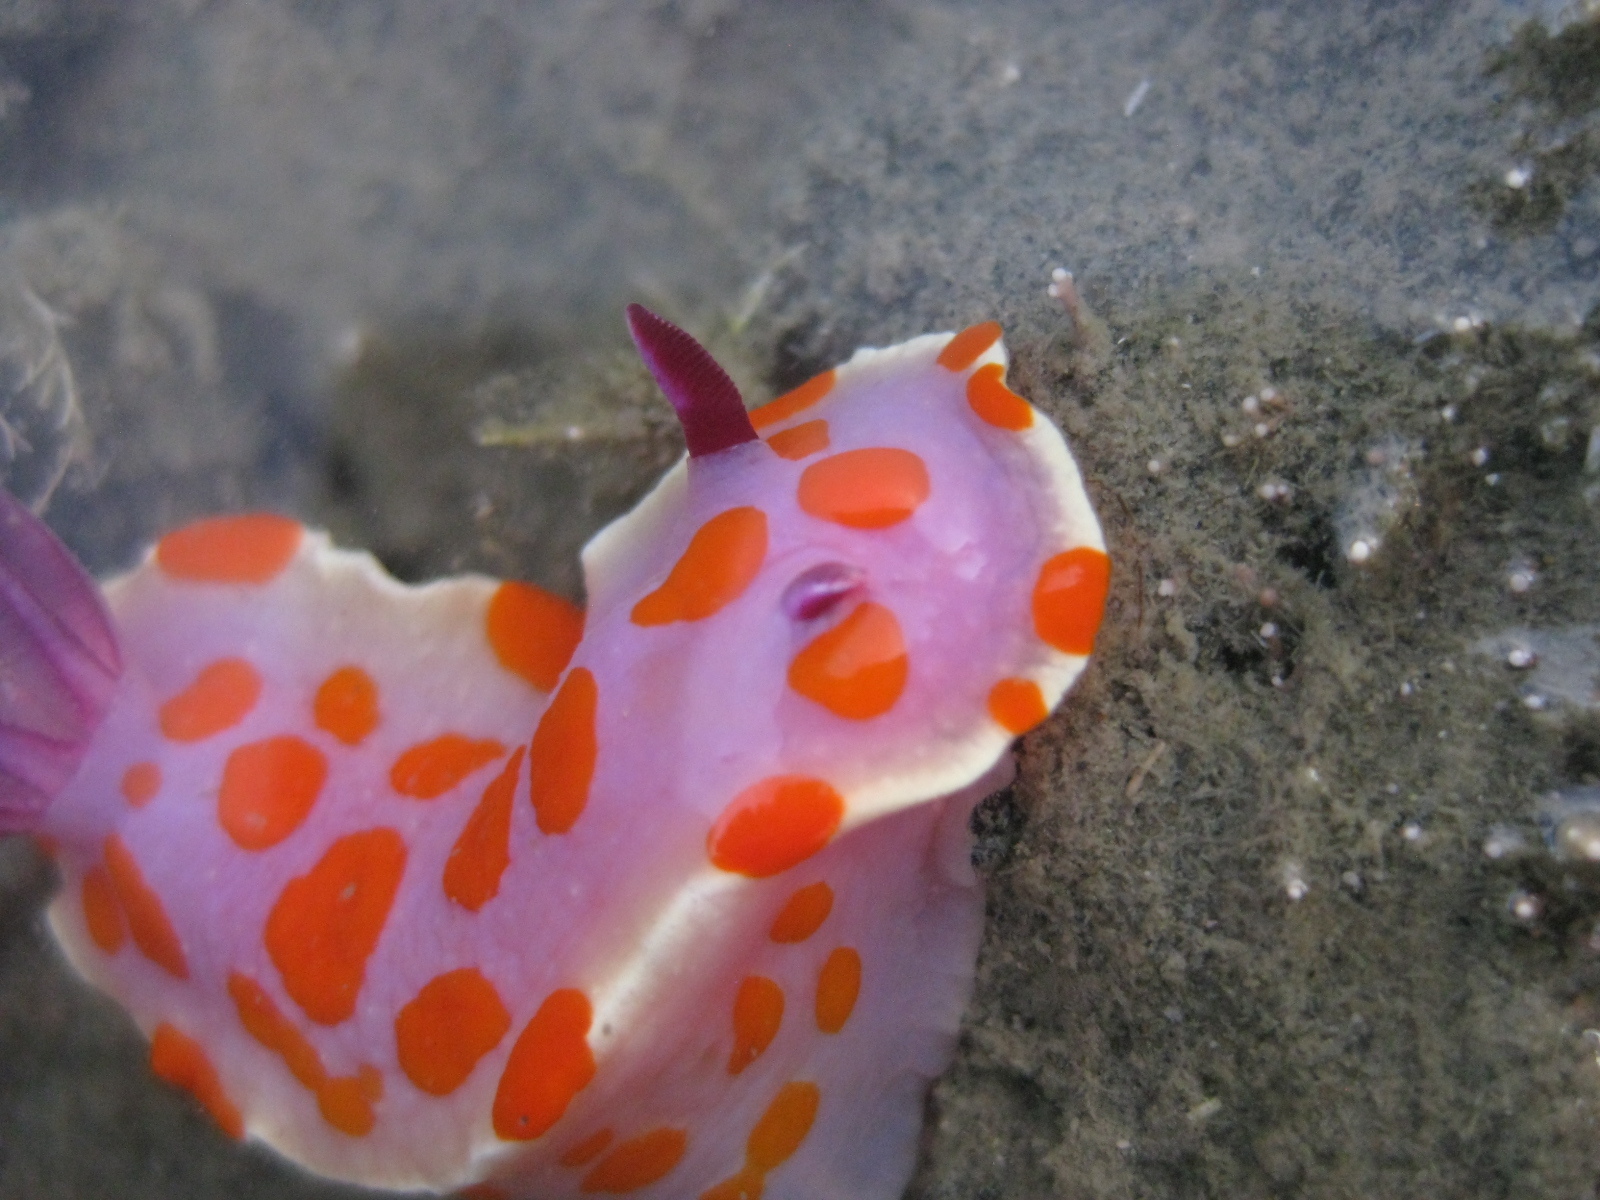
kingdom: Animalia
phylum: Mollusca
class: Gastropoda
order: Nudibranchia
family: Chromodorididae
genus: Ceratosoma
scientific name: Ceratosoma amoenum
